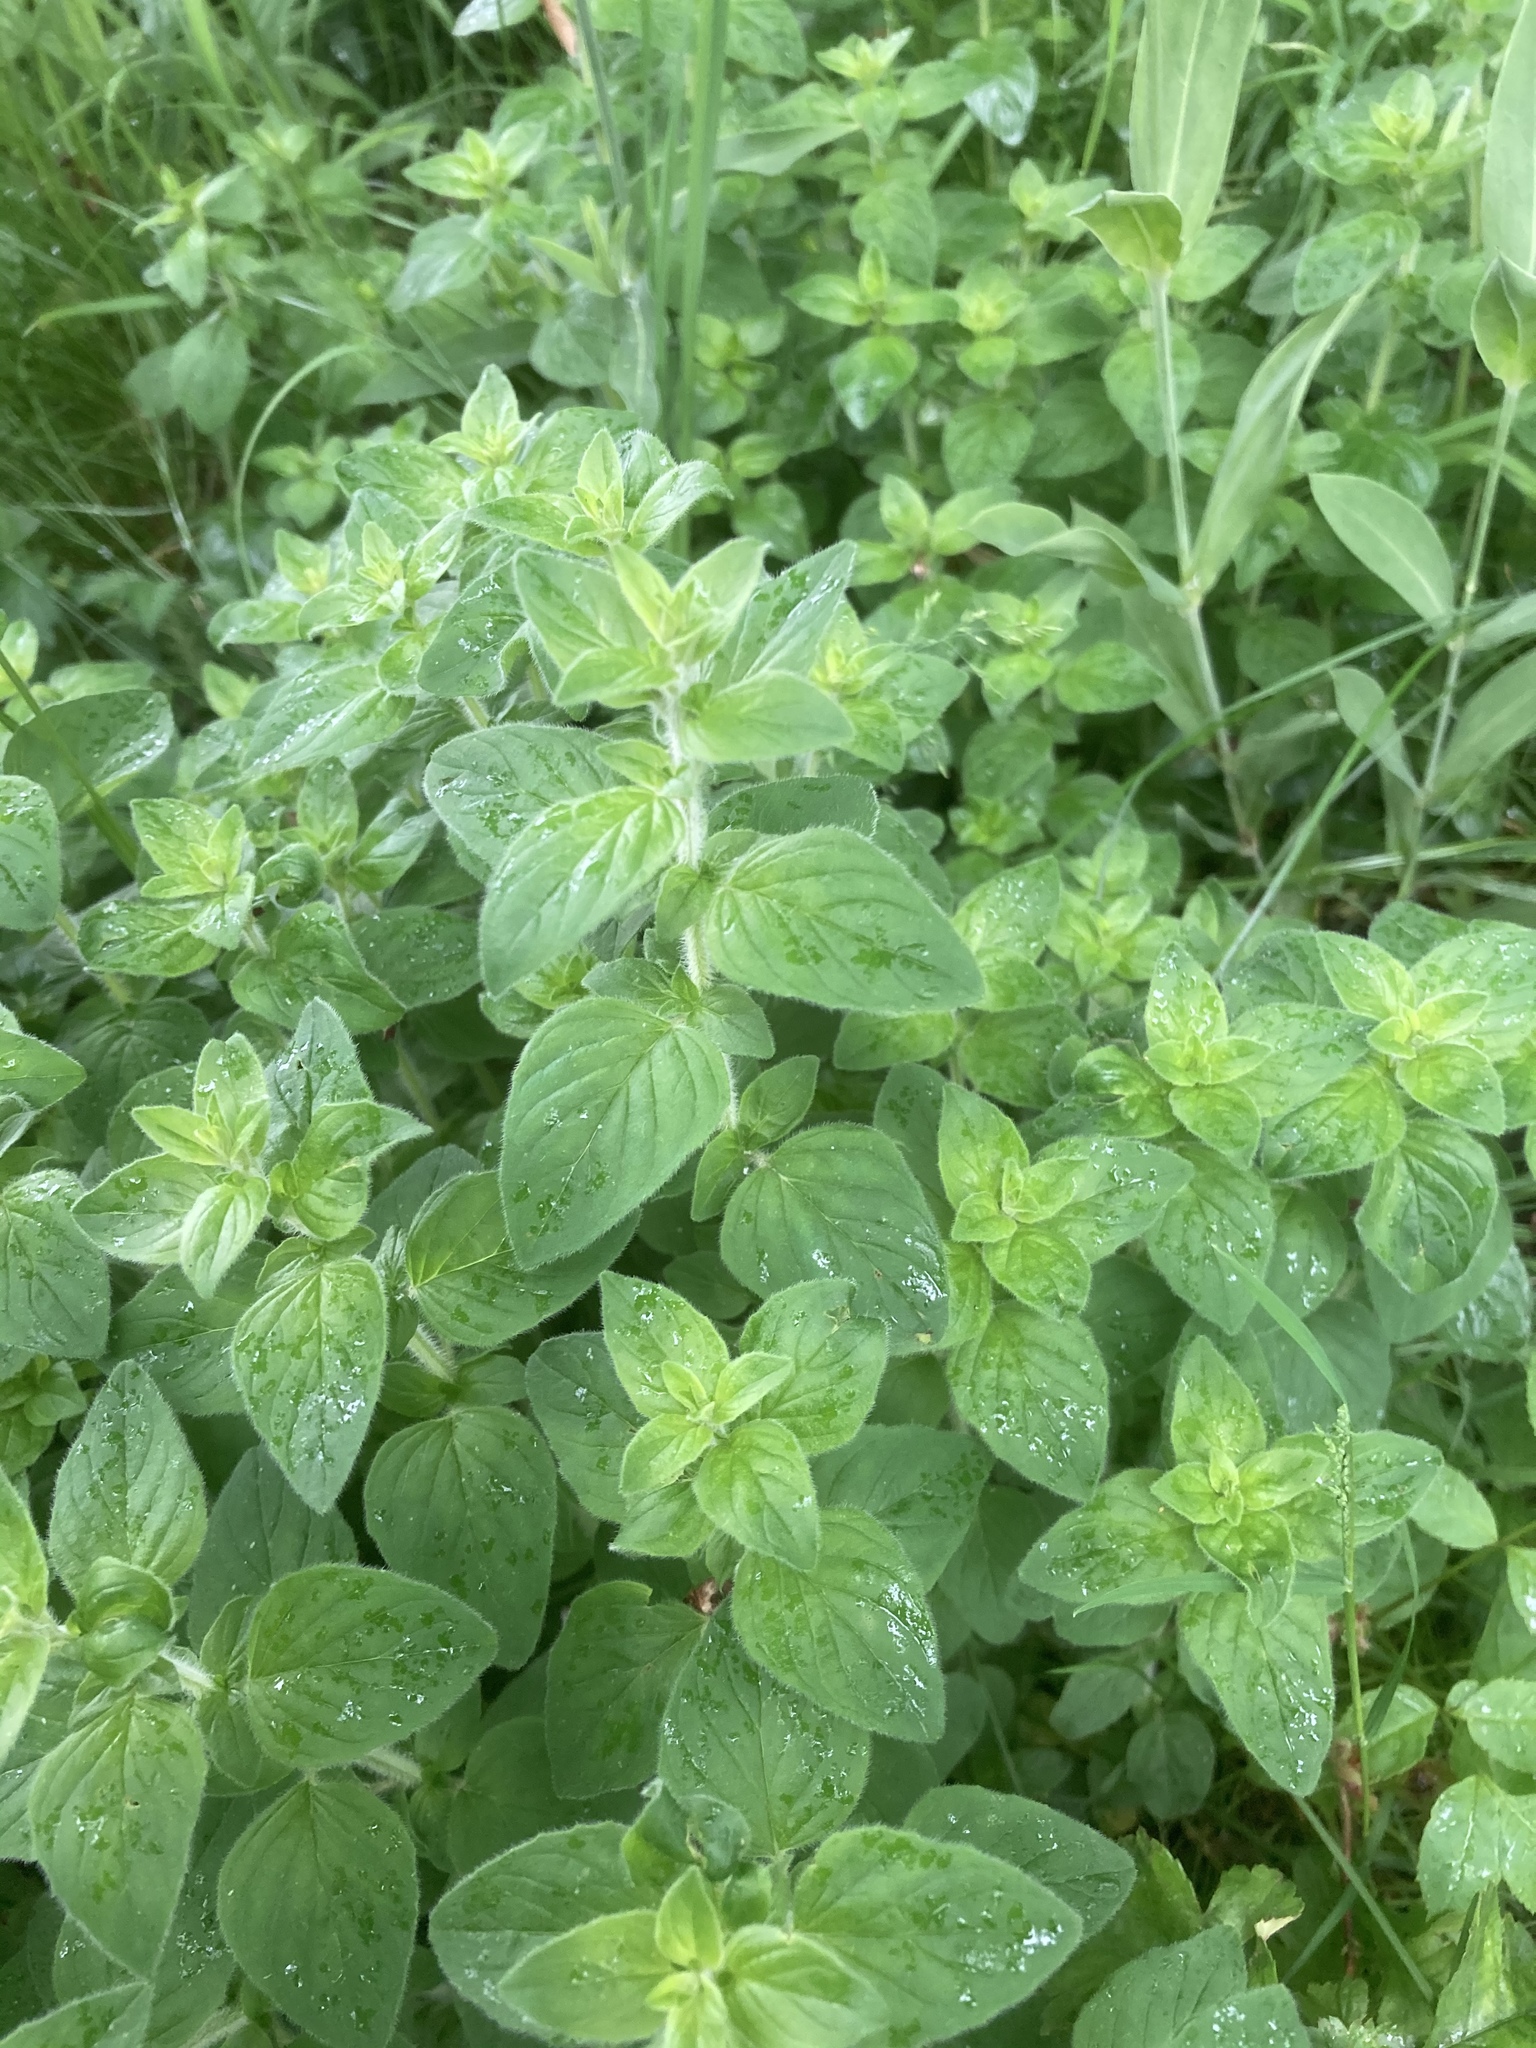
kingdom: Plantae
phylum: Tracheophyta
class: Magnoliopsida
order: Lamiales
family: Lamiaceae
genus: Origanum
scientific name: Origanum vulgare
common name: Wild marjoram
